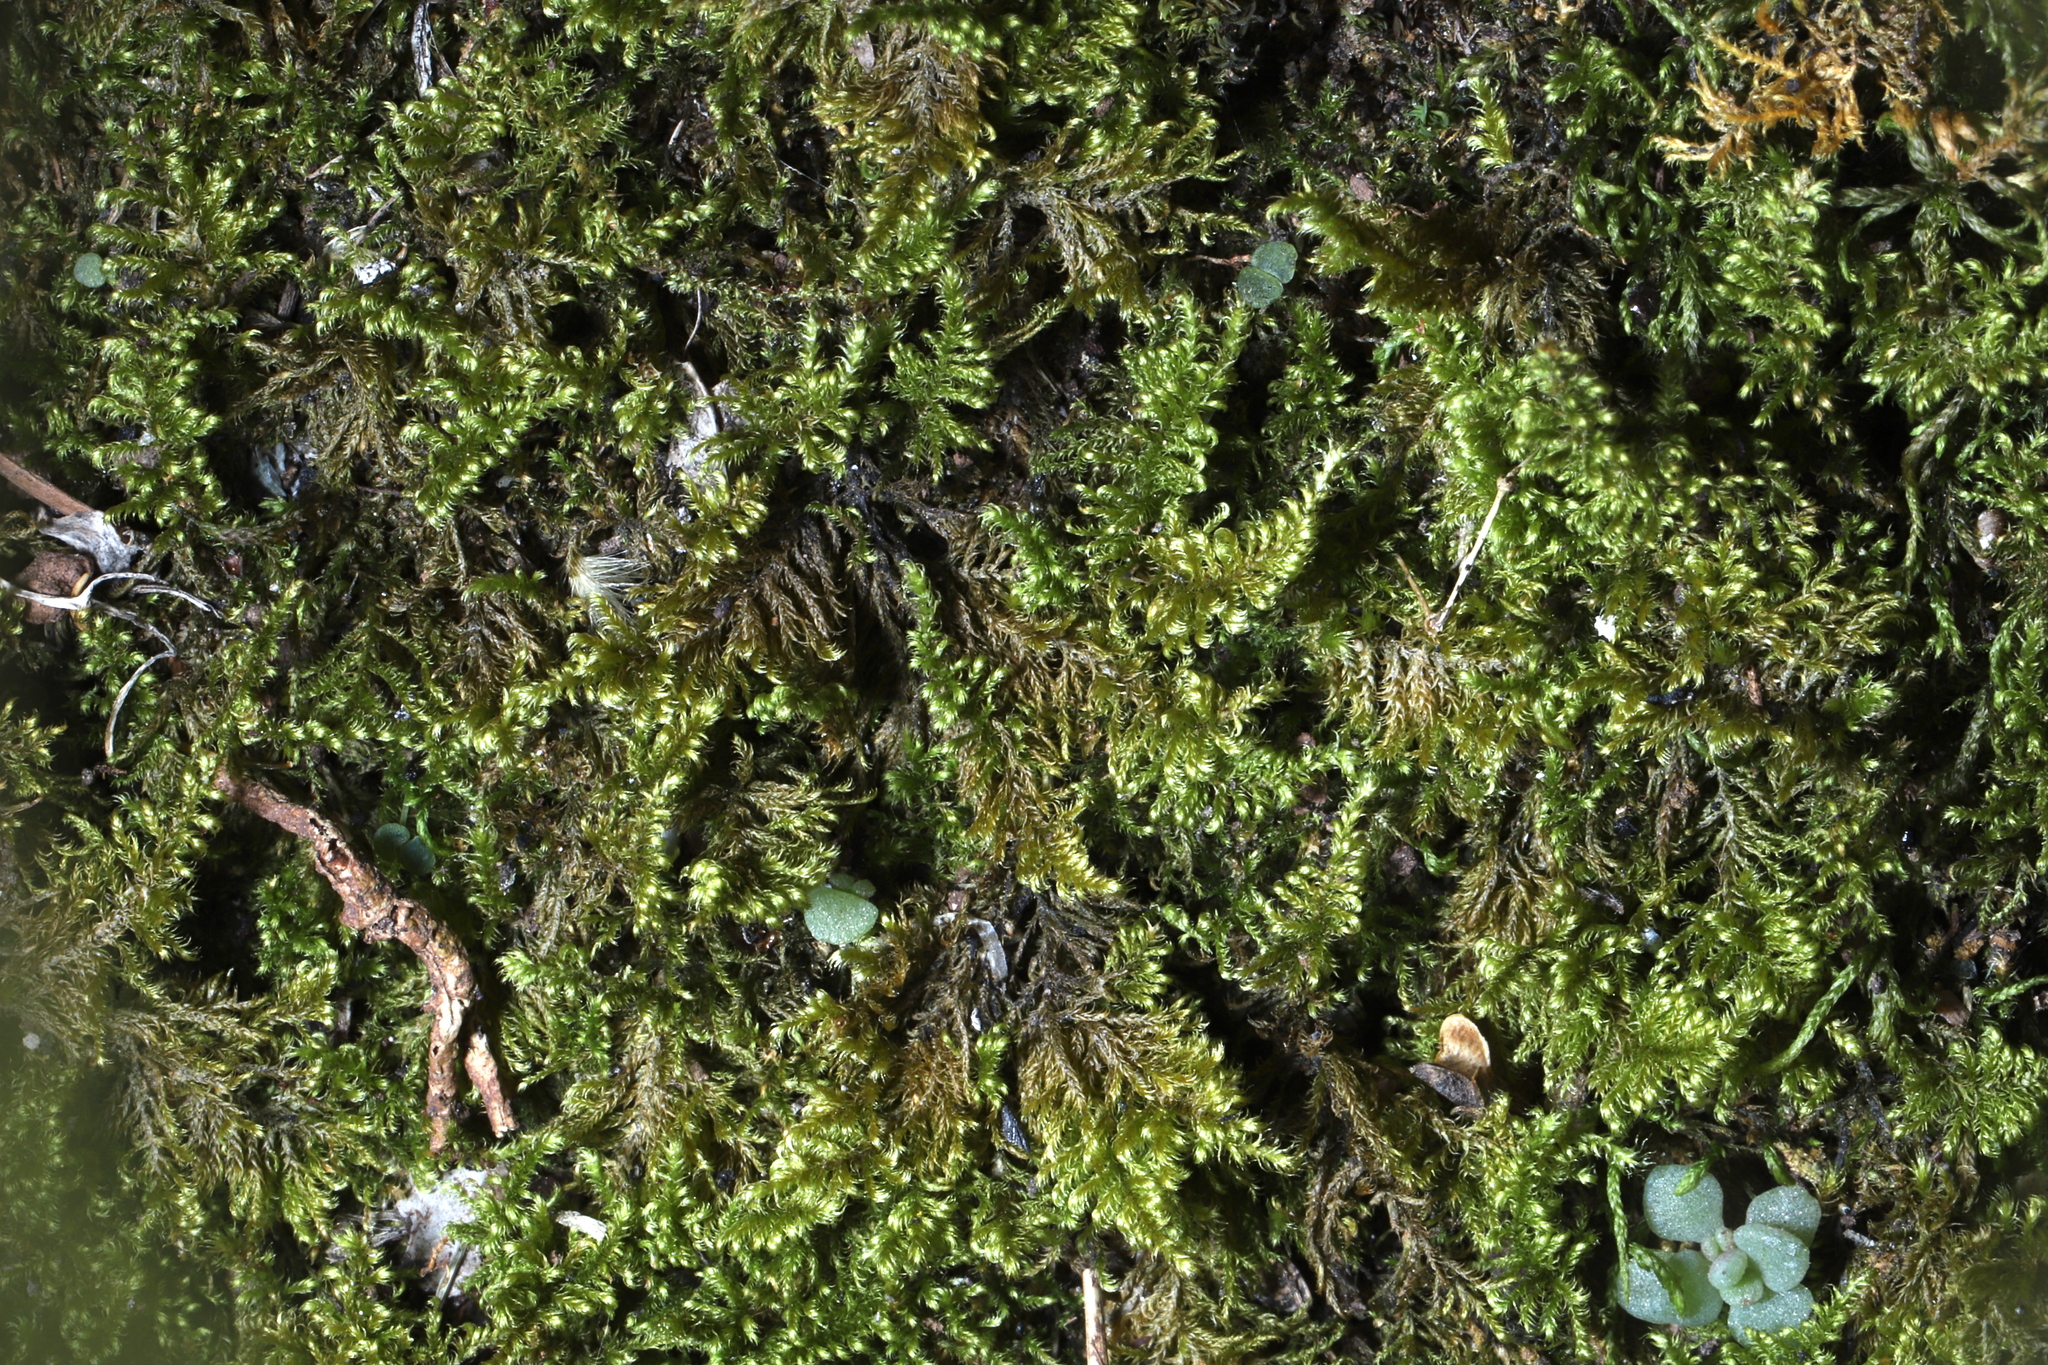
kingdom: Plantae
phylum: Bryophyta
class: Bryopsida
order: Hypnales
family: Myuriaceae
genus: Ctenidium
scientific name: Ctenidium molluscum
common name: Chalk comb-moss
